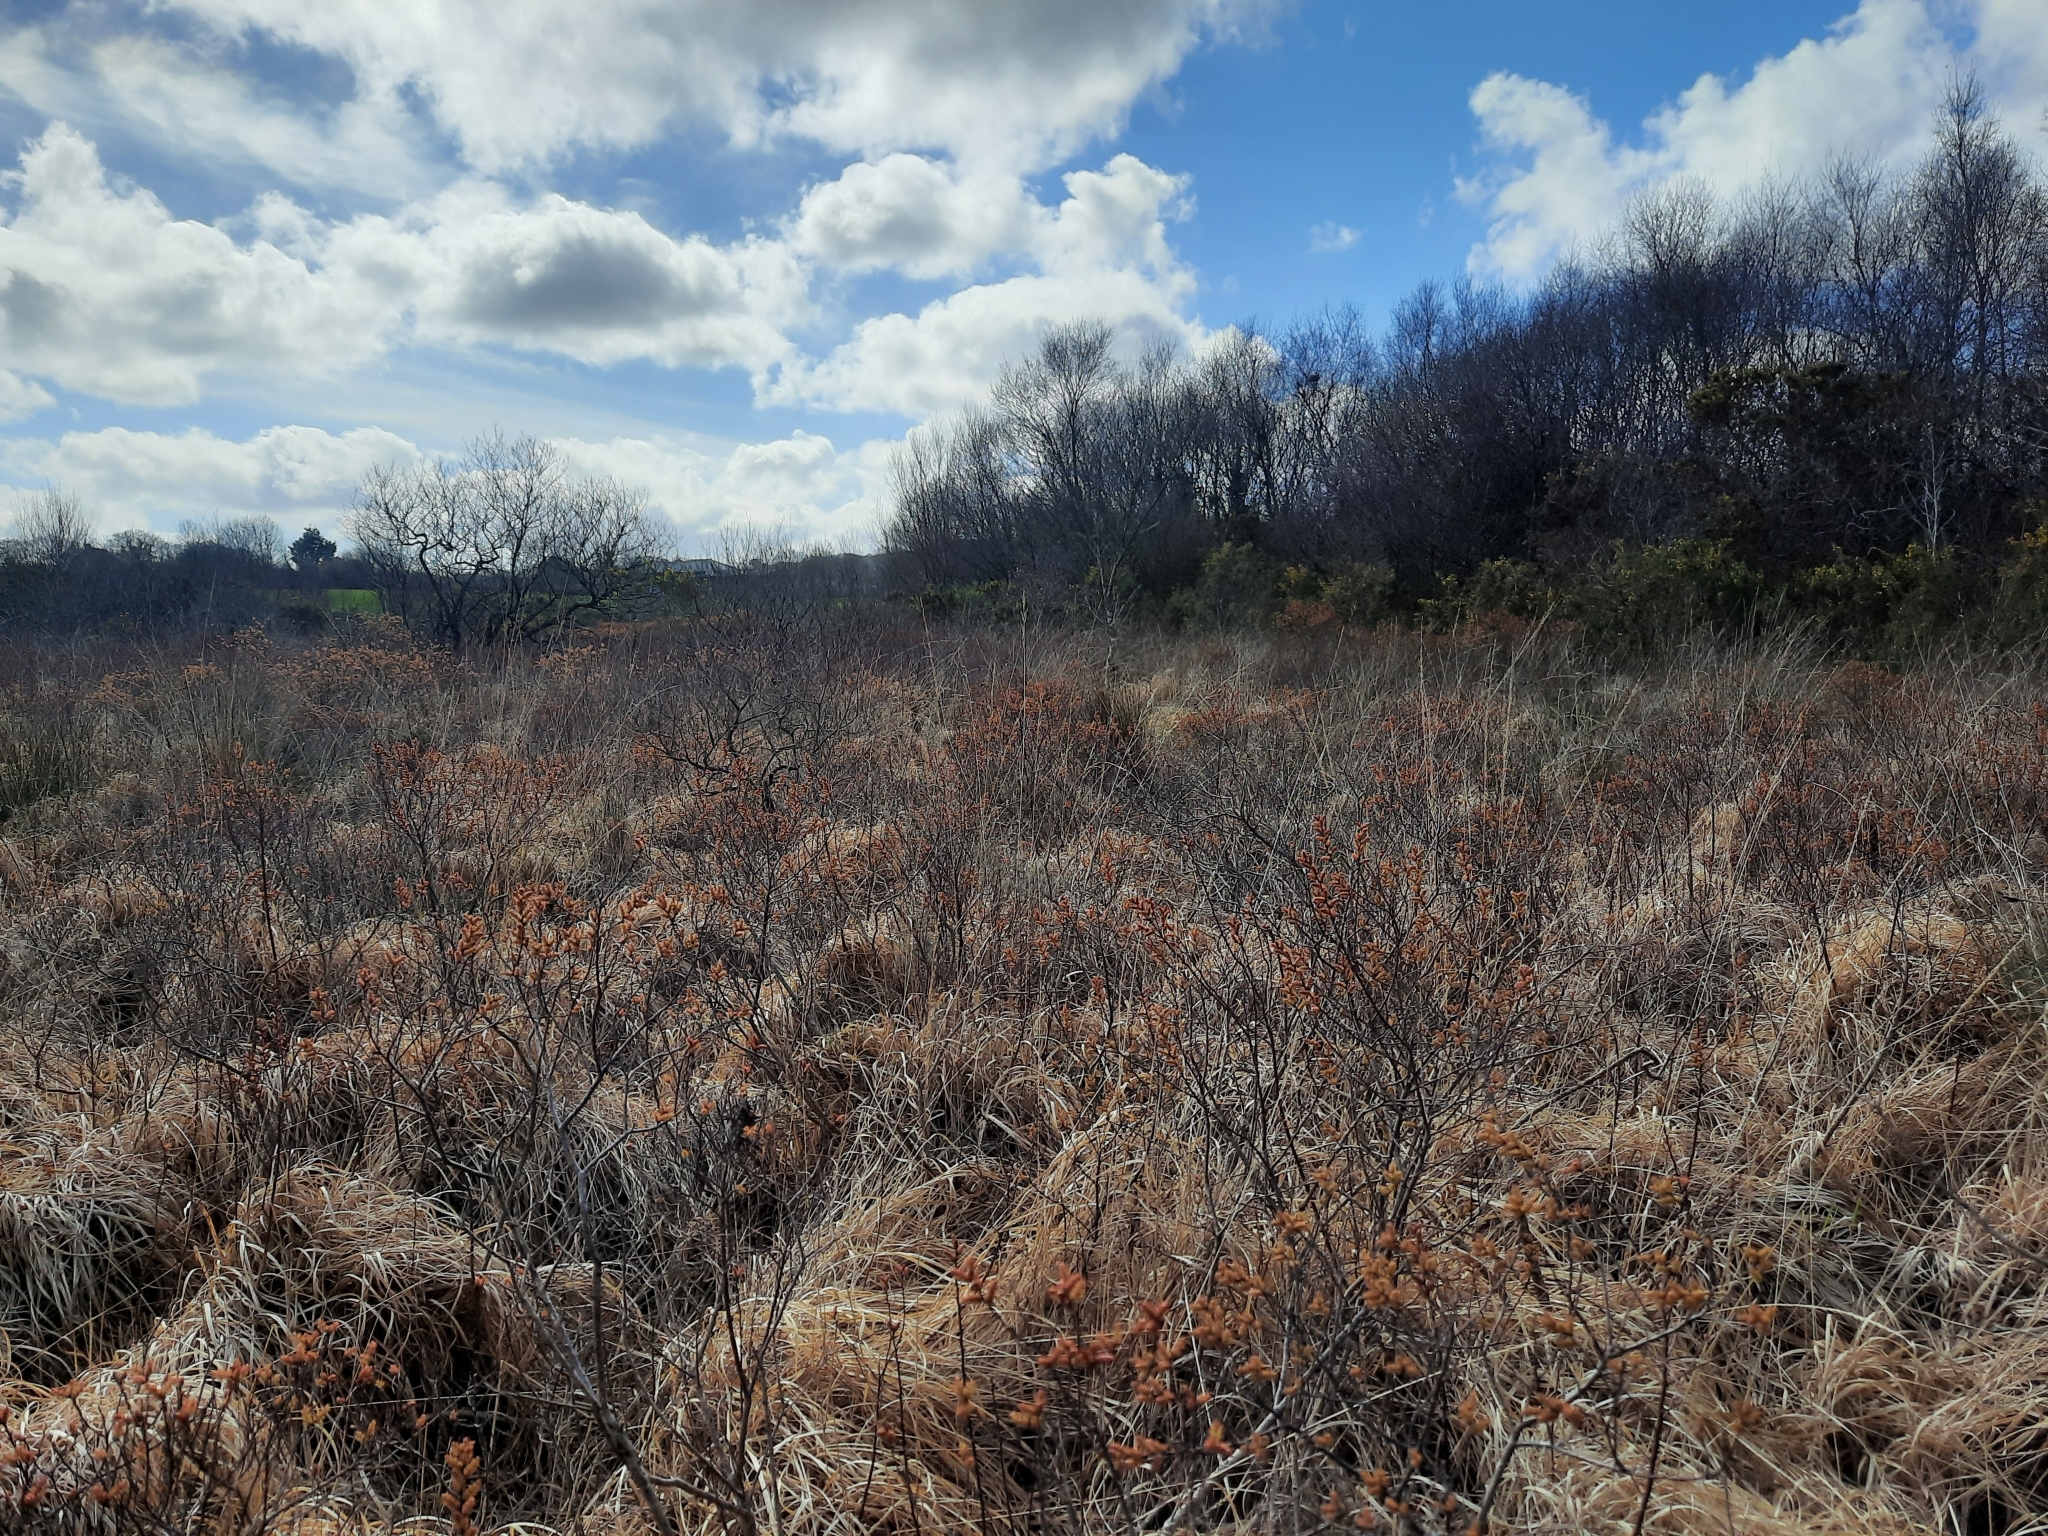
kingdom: Plantae
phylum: Tracheophyta
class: Magnoliopsida
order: Fagales
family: Myricaceae
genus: Myrica
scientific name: Myrica gale
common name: Sweet gale
